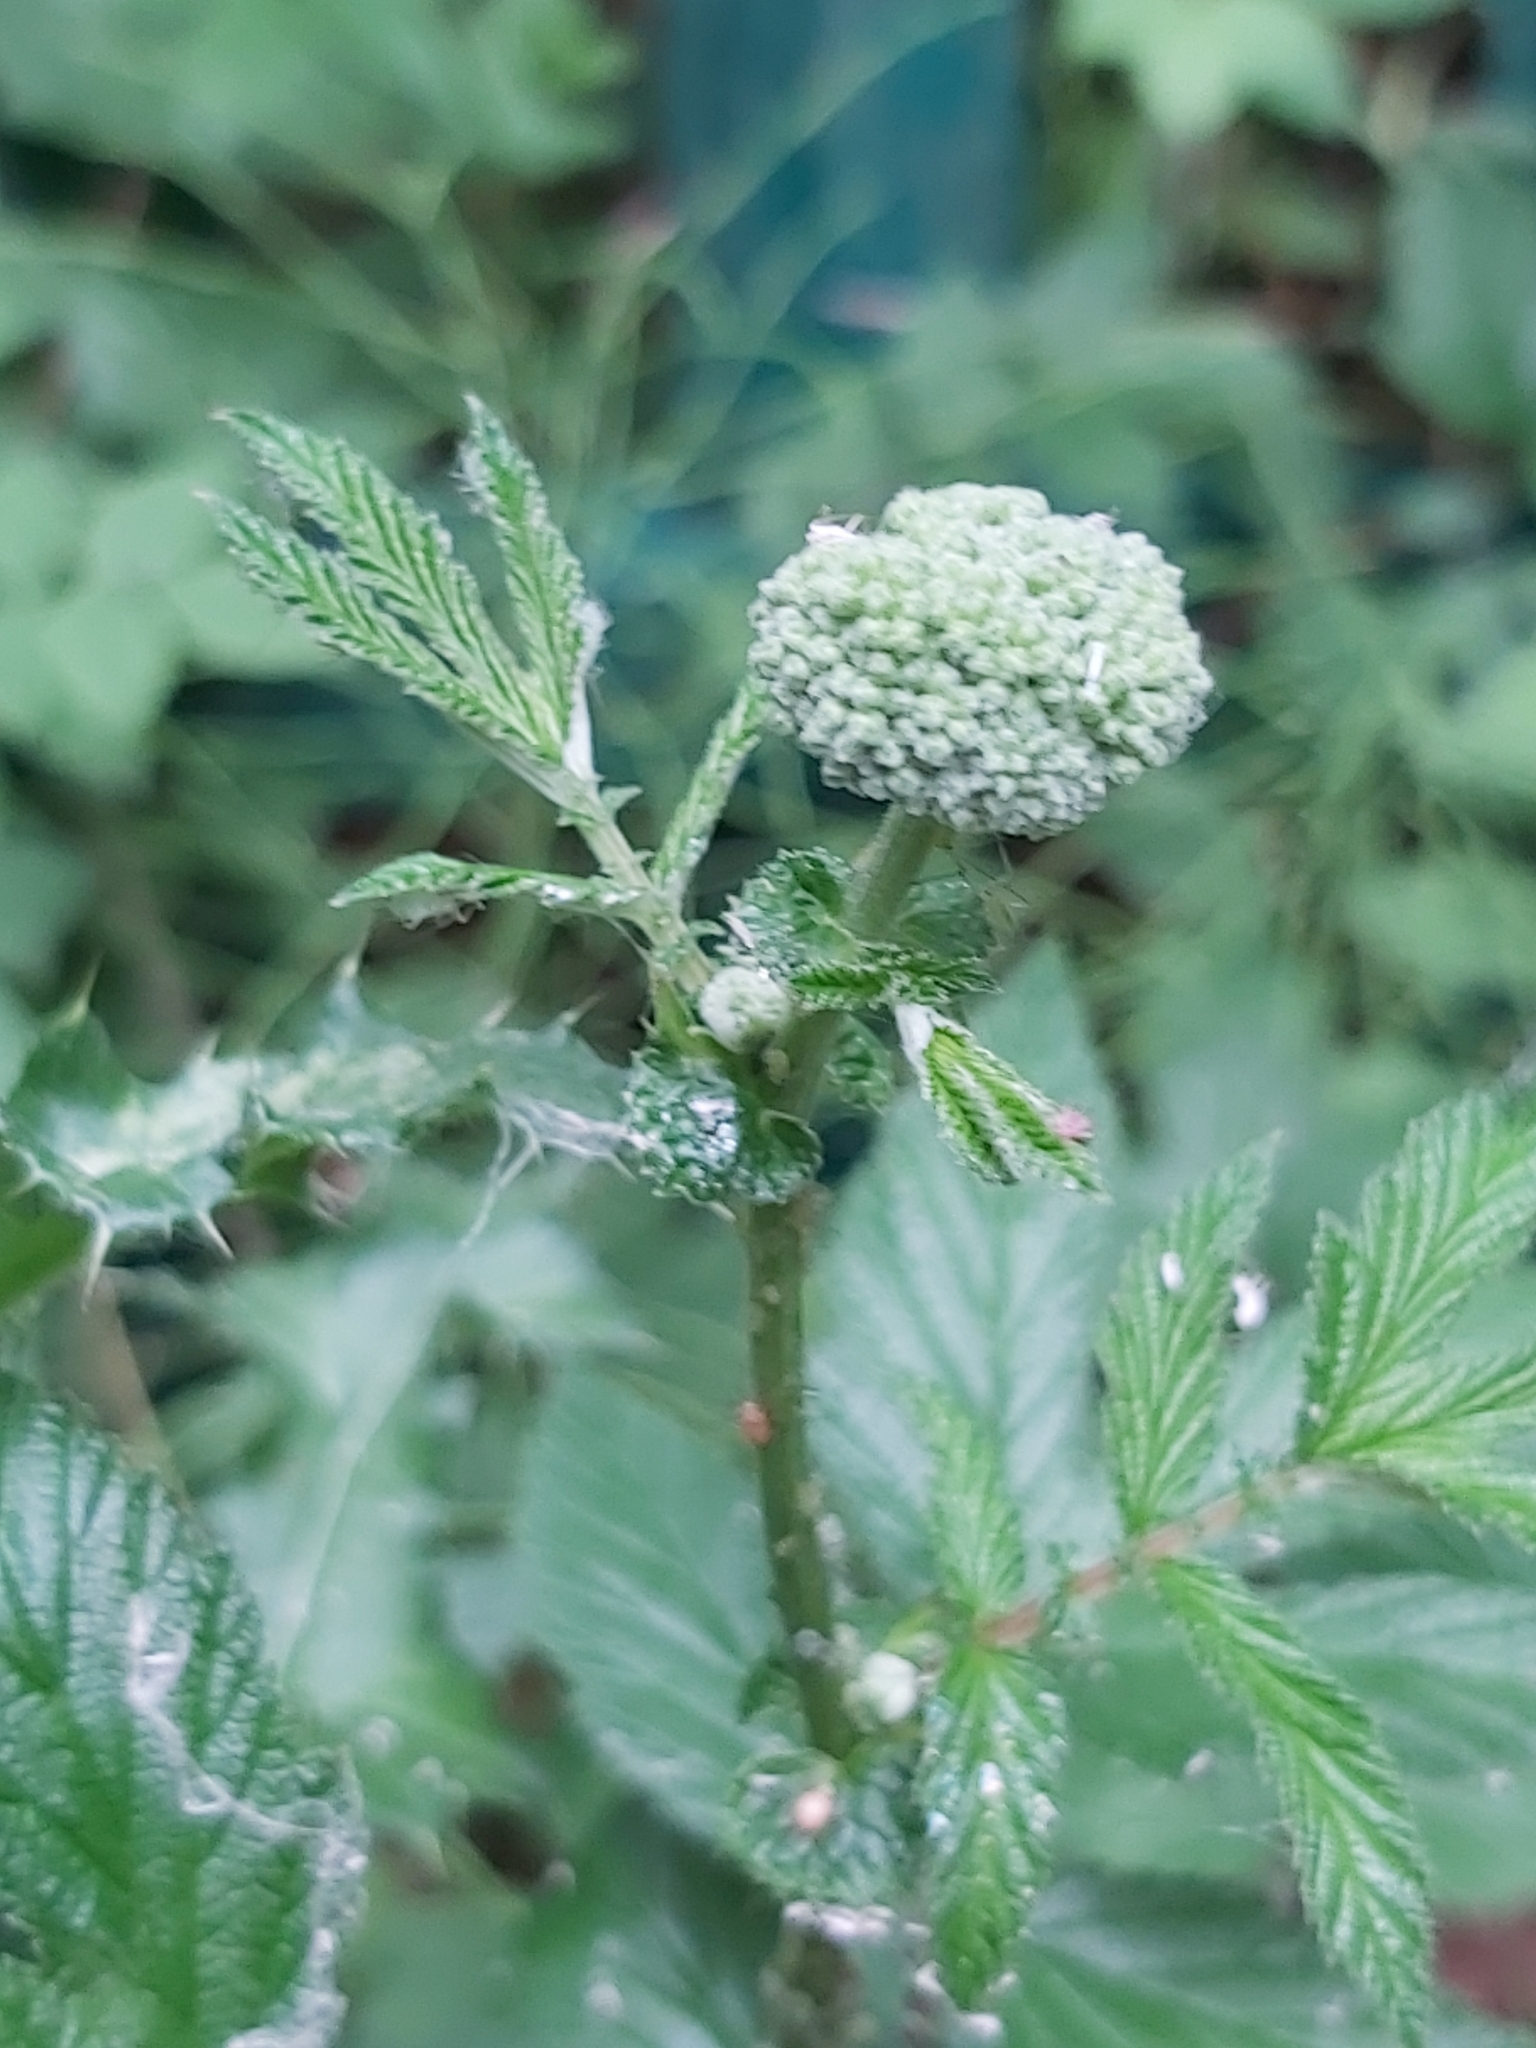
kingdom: Plantae
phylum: Tracheophyta
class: Magnoliopsida
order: Rosales
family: Rosaceae
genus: Filipendula
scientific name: Filipendula ulmaria
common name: Meadowsweet
